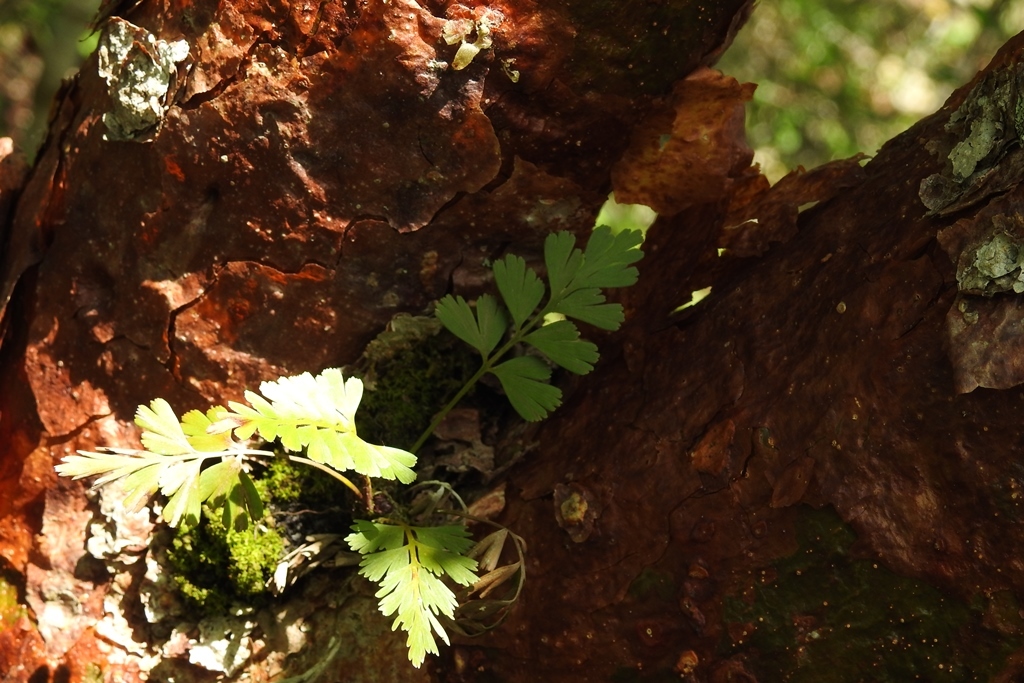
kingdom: Plantae
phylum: Tracheophyta
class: Polypodiopsida
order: Polypodiales
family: Aspleniaceae
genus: Asplenium
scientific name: Asplenium praemorsum
